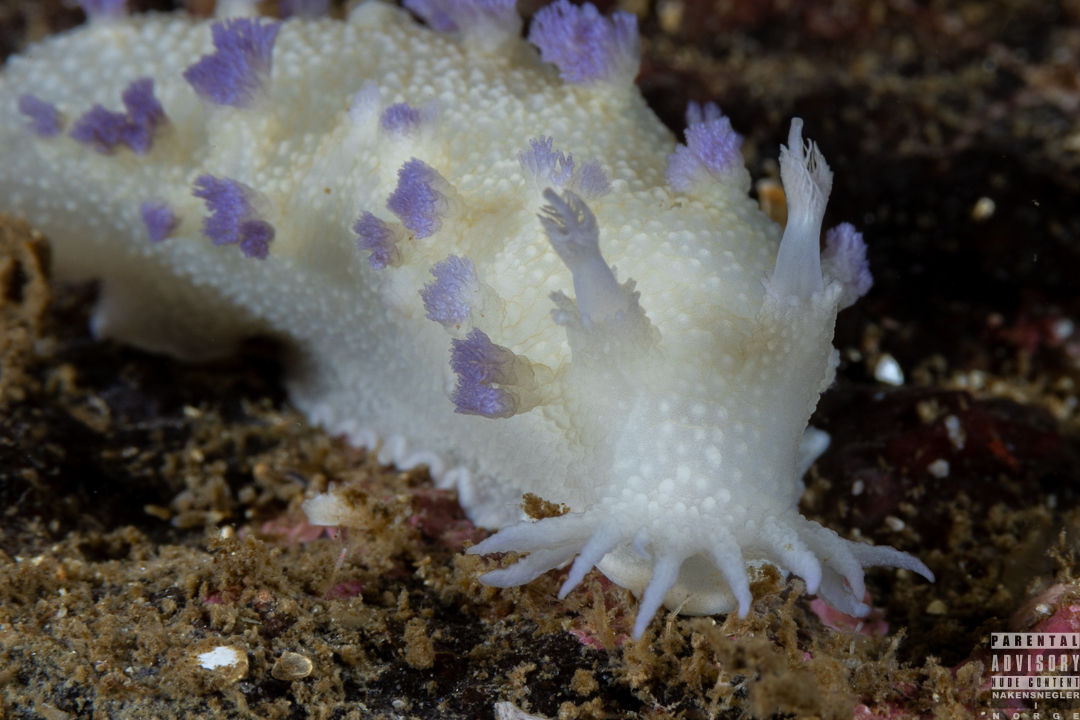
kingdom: Animalia
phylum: Mollusca
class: Gastropoda
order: Nudibranchia
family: Tritoniidae
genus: Tritonia
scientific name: Tritonia griegi
